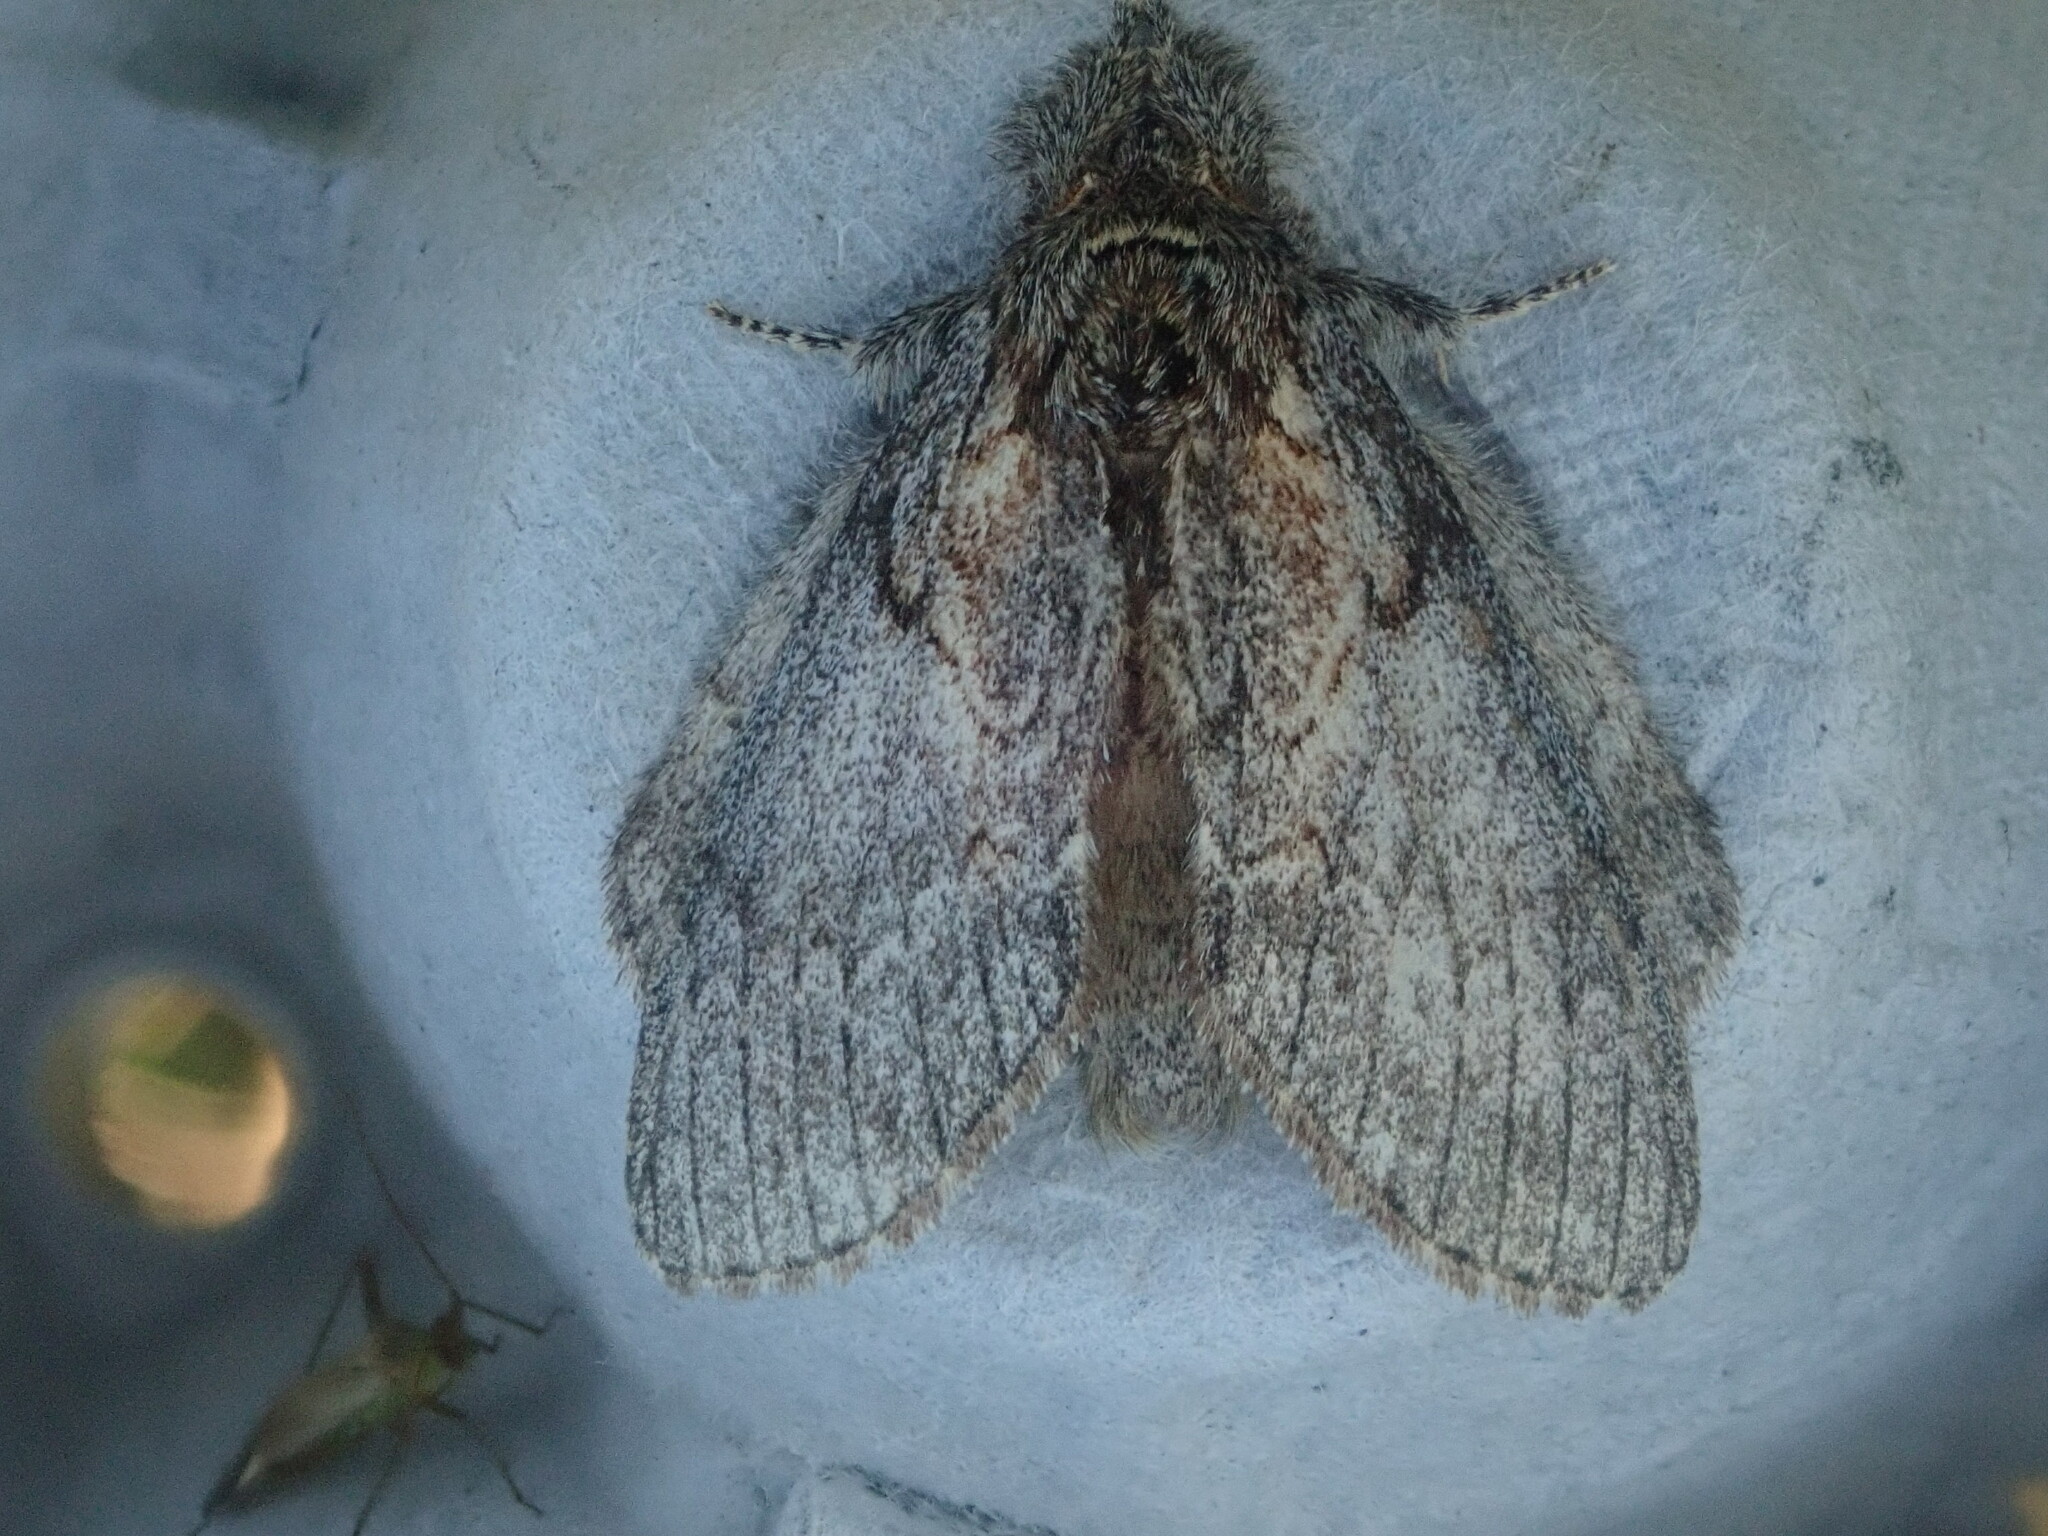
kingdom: Animalia
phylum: Arthropoda
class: Insecta
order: Lepidoptera
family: Notodontidae
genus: Peridea
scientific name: Peridea basitriens
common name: Oval-based prominent
